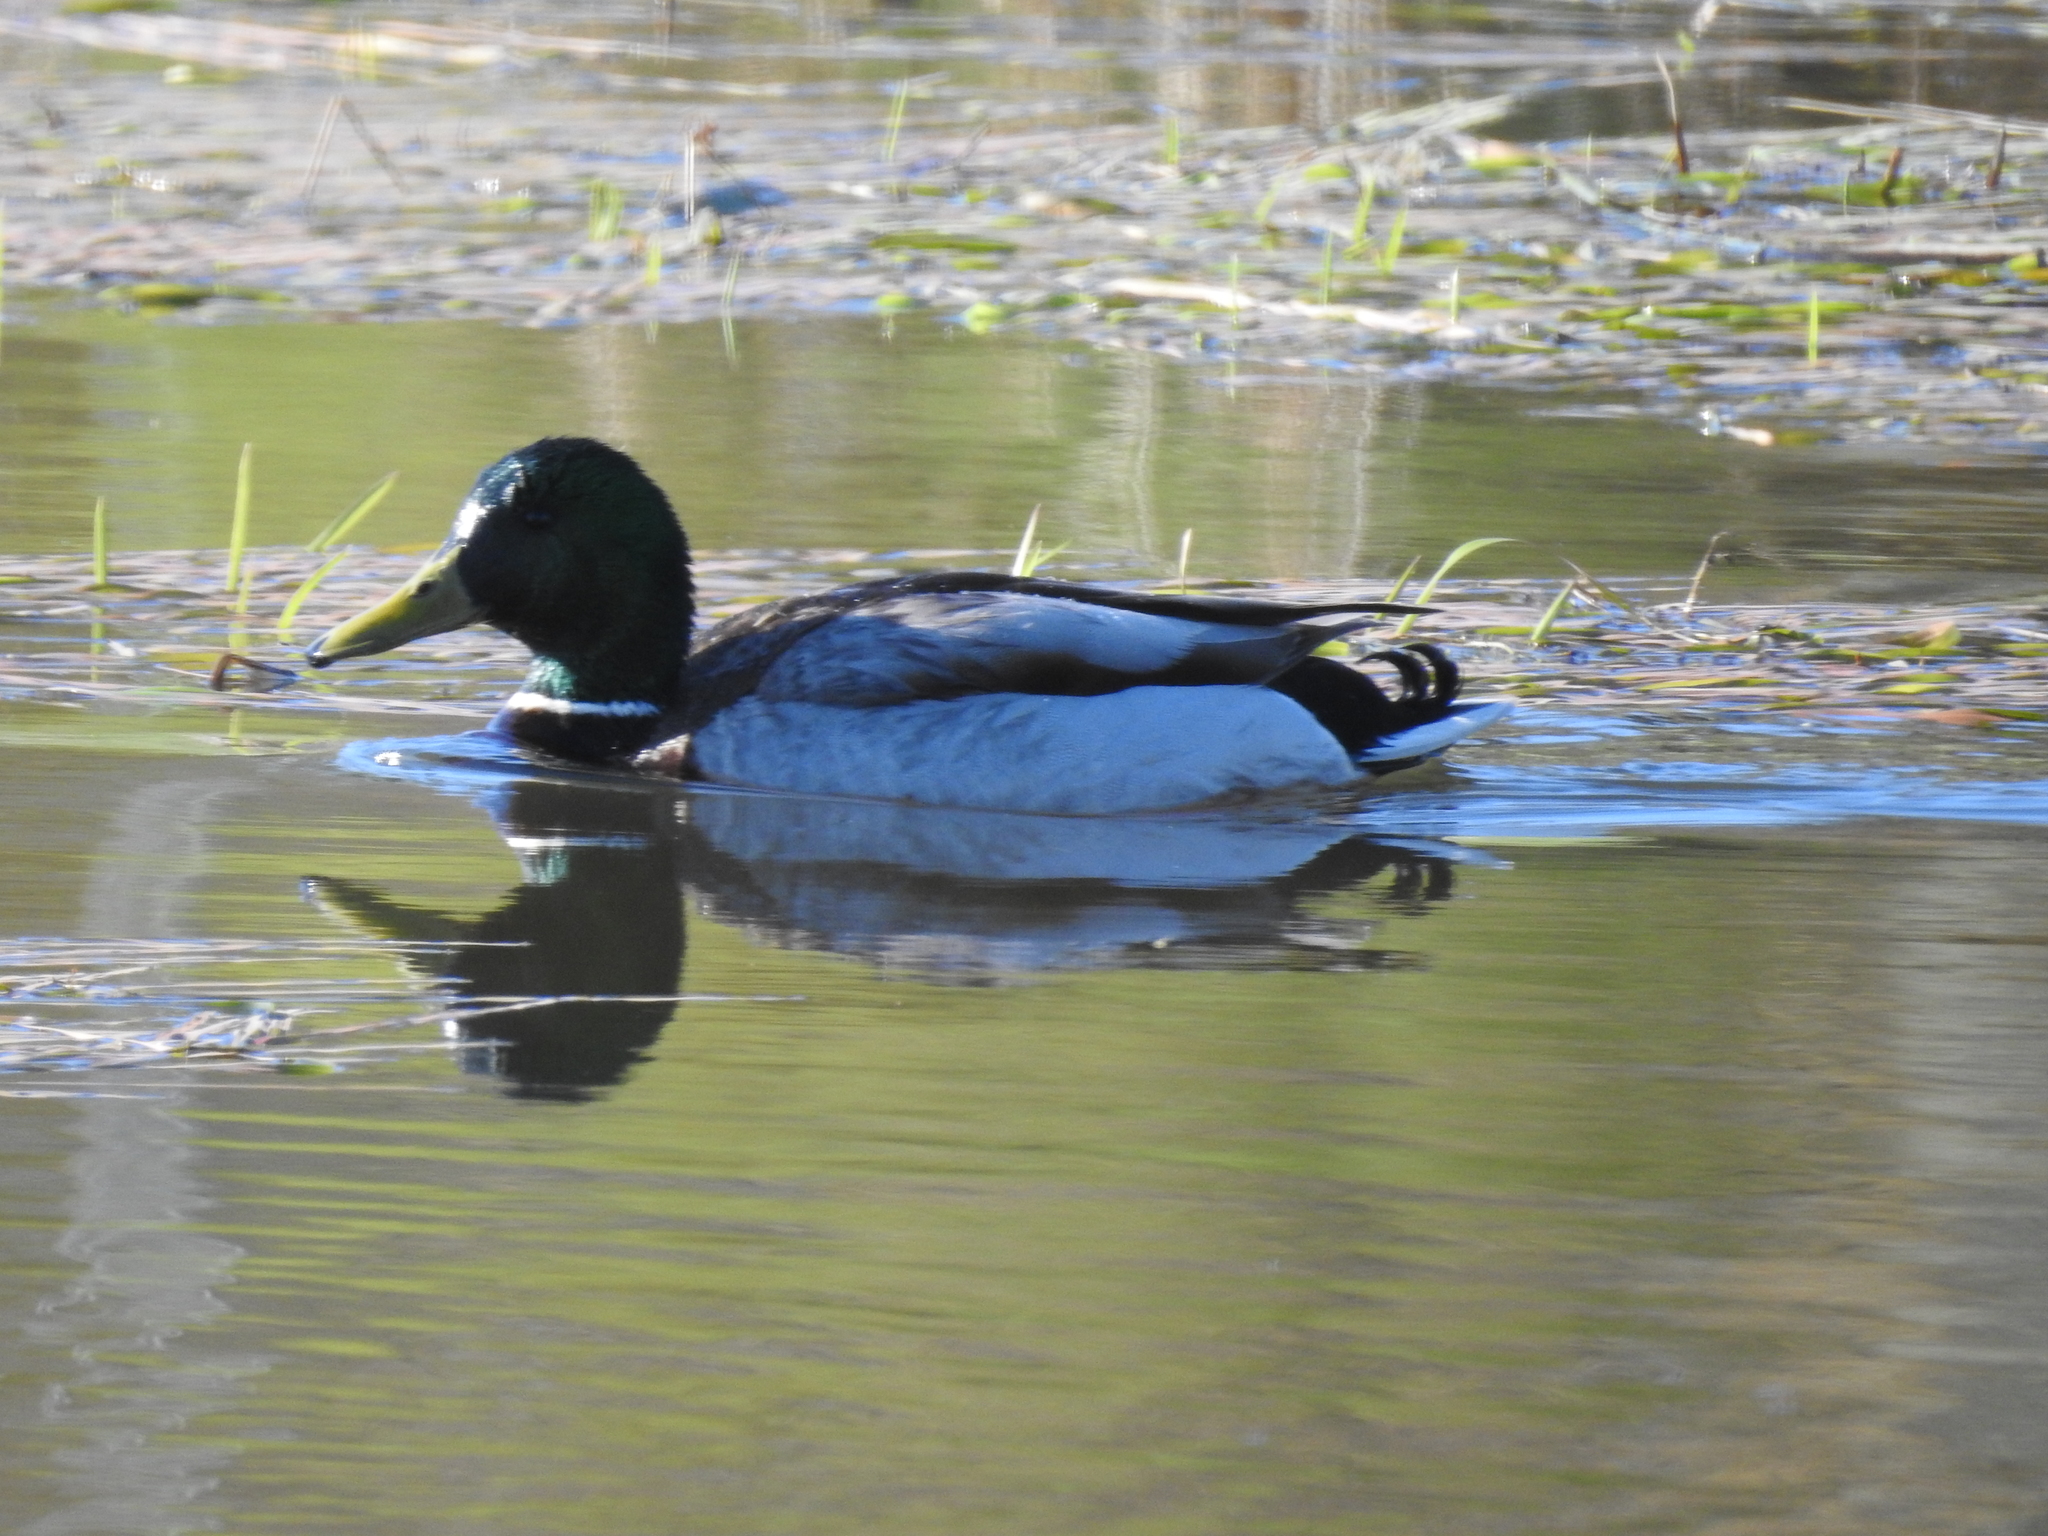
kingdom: Animalia
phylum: Chordata
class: Aves
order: Anseriformes
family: Anatidae
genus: Anas
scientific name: Anas platyrhynchos
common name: Mallard
